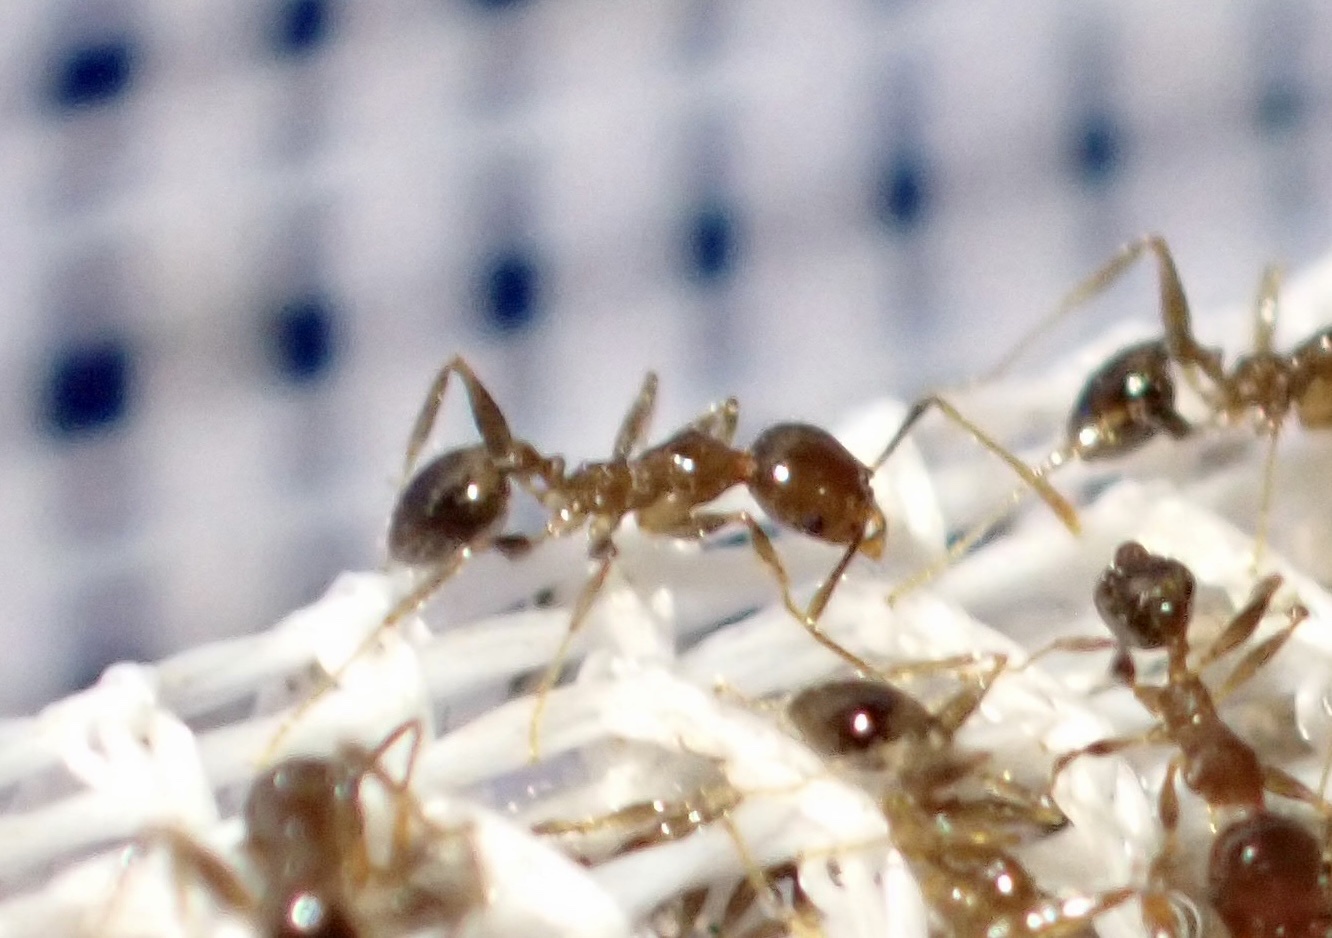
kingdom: Animalia
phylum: Arthropoda
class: Insecta
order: Hymenoptera
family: Formicidae
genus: Pheidole
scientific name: Pheidole megacephala
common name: Bigheaded ant
